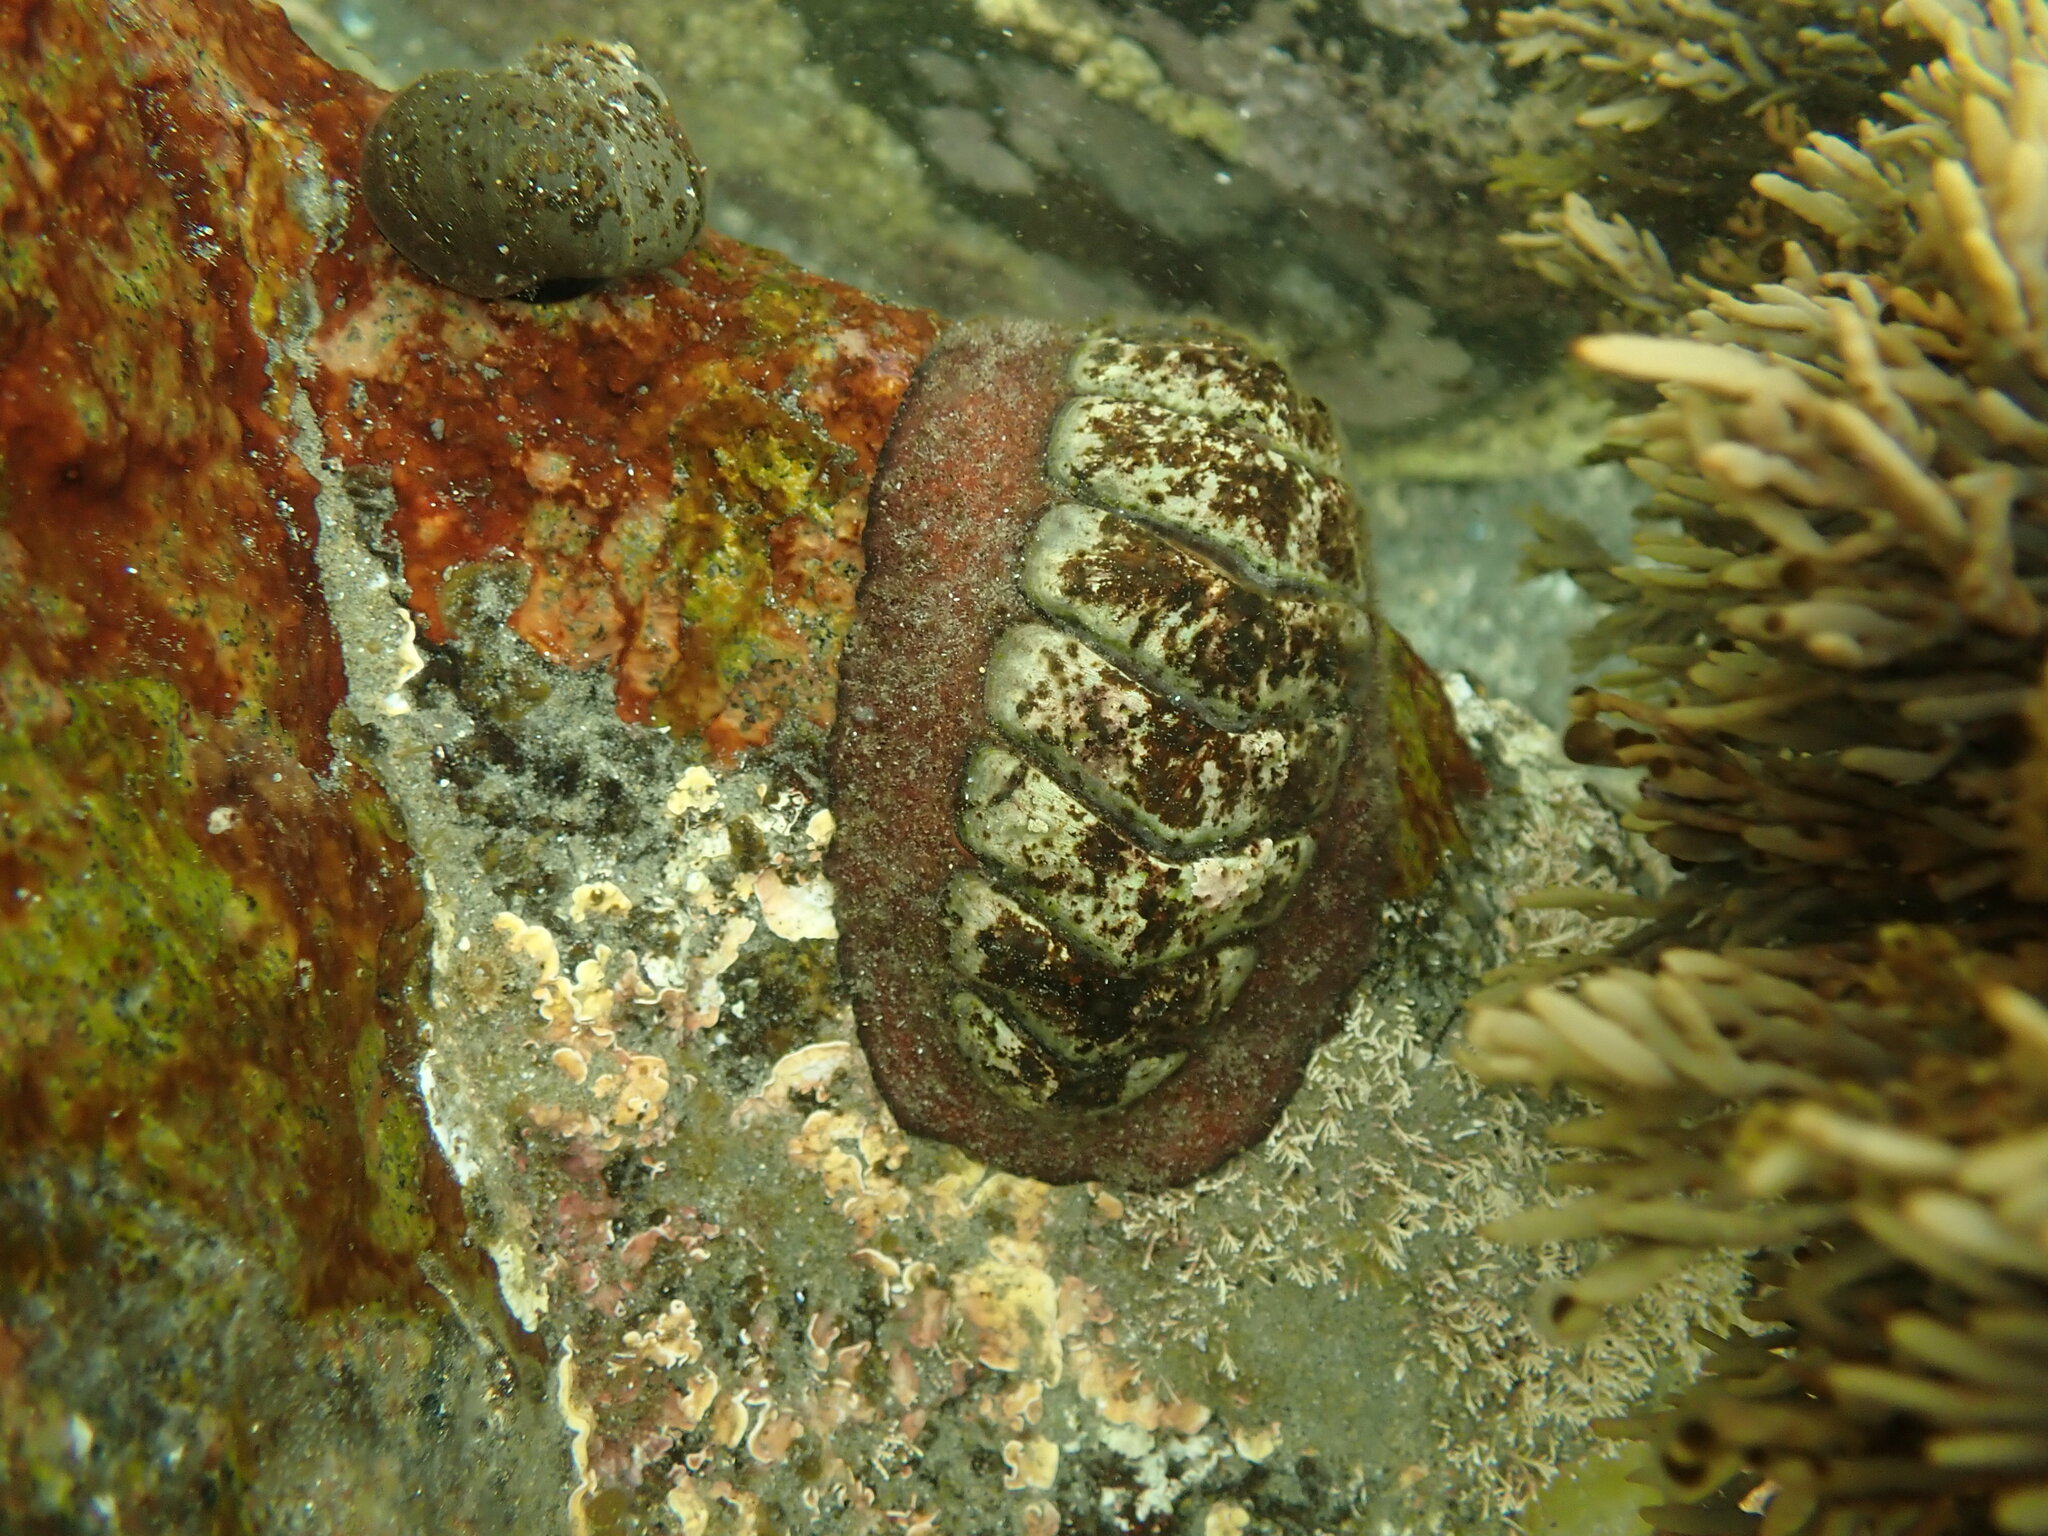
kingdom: Animalia
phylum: Mollusca
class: Polyplacophora
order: Callochitonida
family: Callochitonidae
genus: Eudoxochiton
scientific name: Eudoxochiton nobilis
